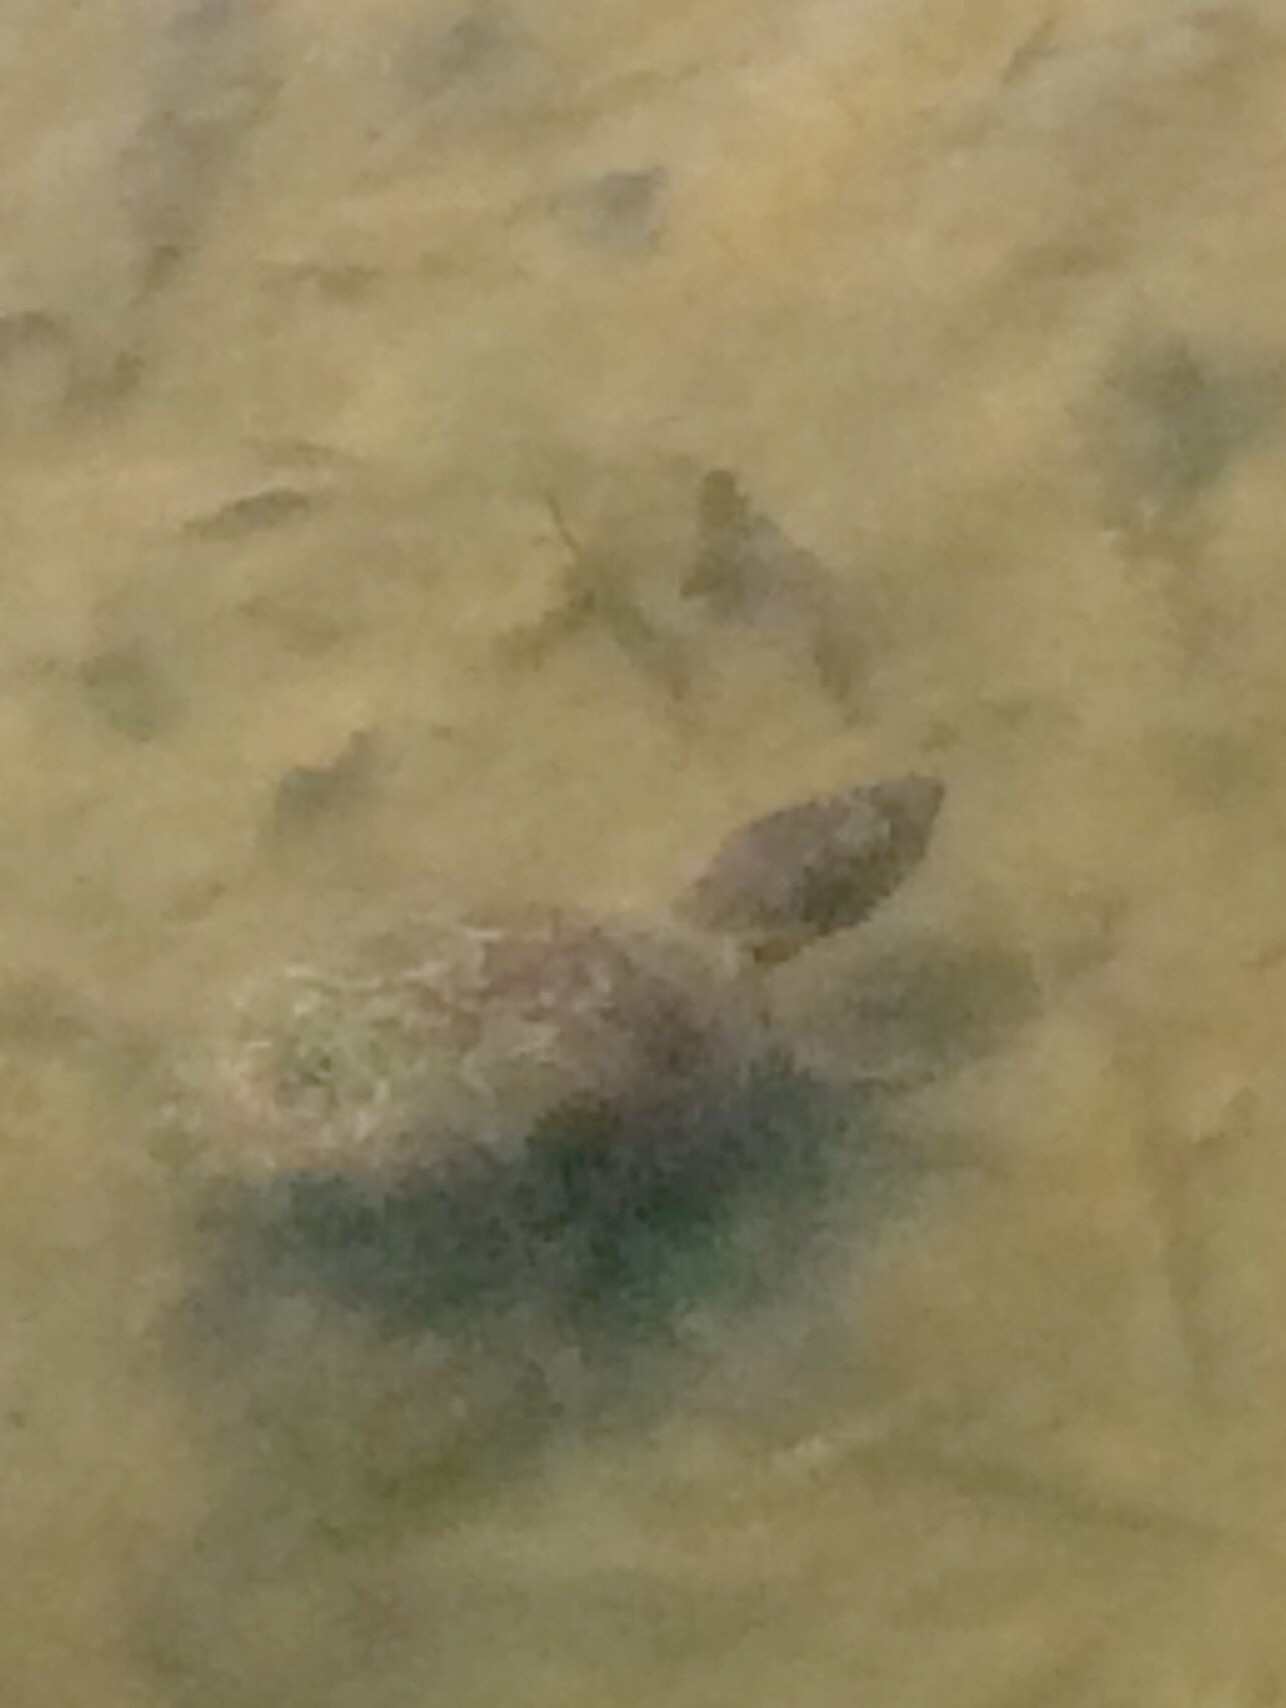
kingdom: Animalia
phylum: Chordata
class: Testudines
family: Kinosternidae
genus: Kinosternon
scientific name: Kinosternon subrubrum
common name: Eastern mud turtle
